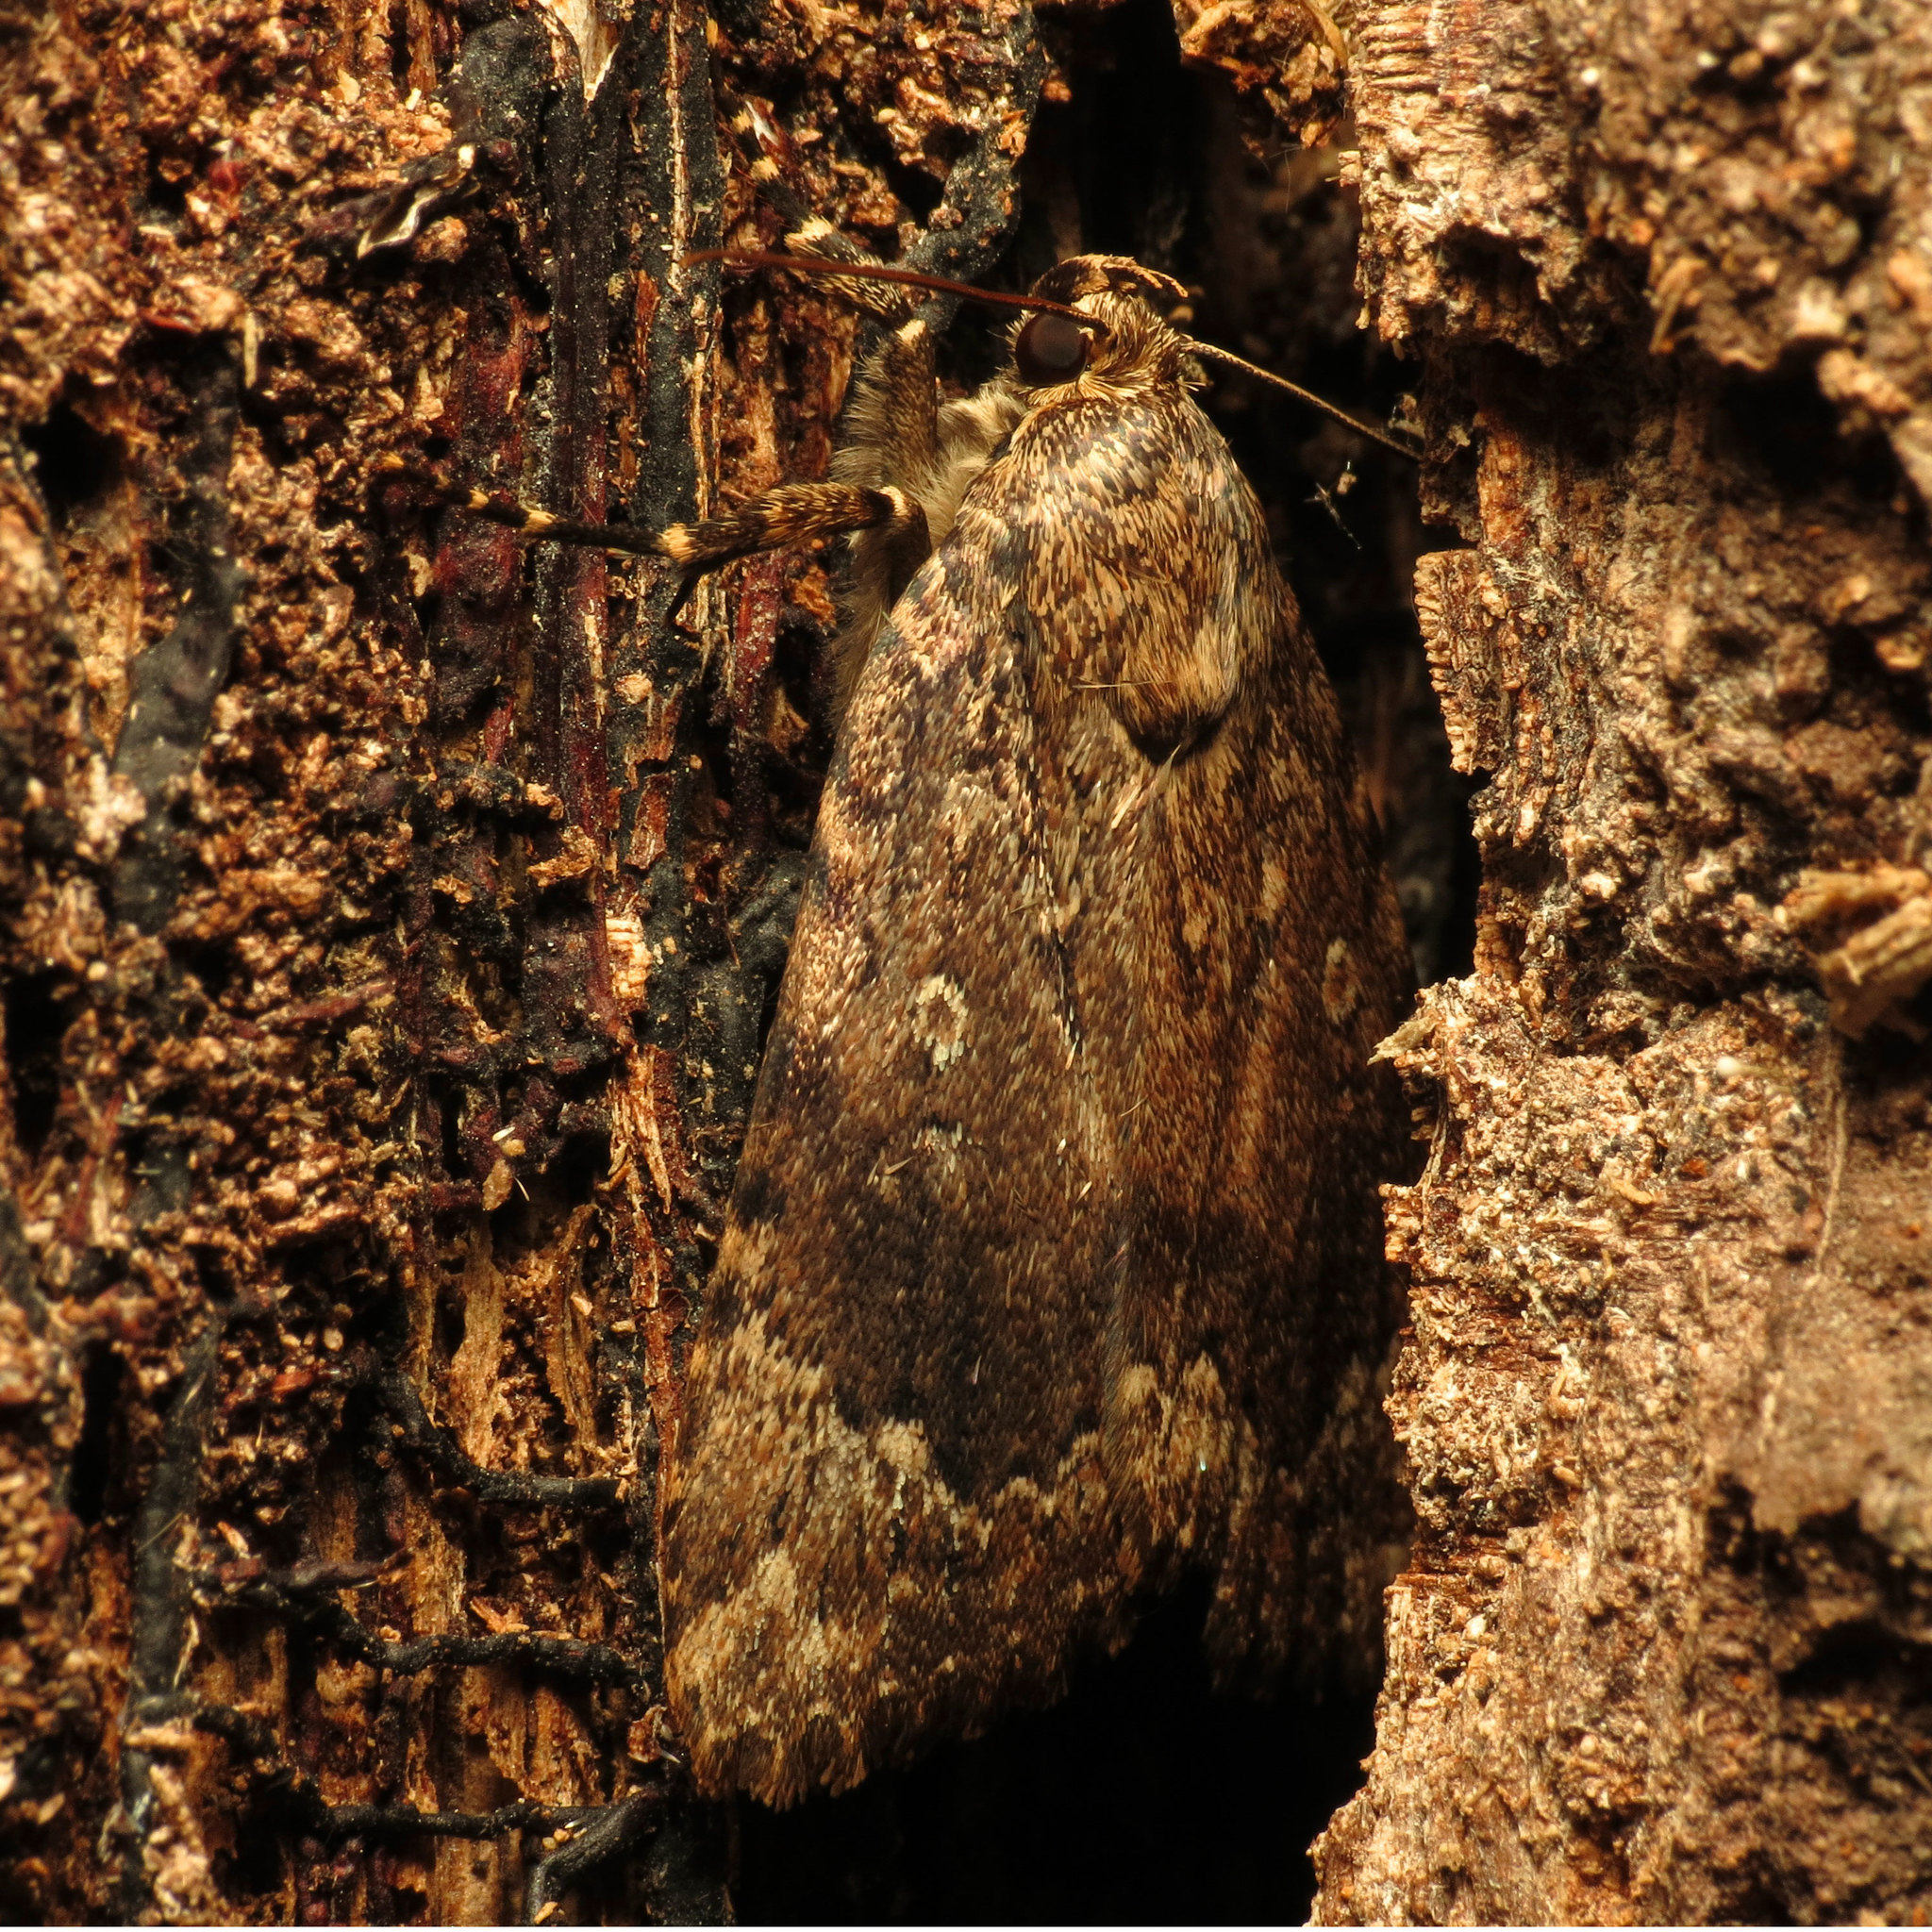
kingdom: Animalia
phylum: Arthropoda
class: Insecta
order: Lepidoptera
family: Noctuidae
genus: Amphipyra
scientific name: Amphipyra pyramidoides
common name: American copper underwing
